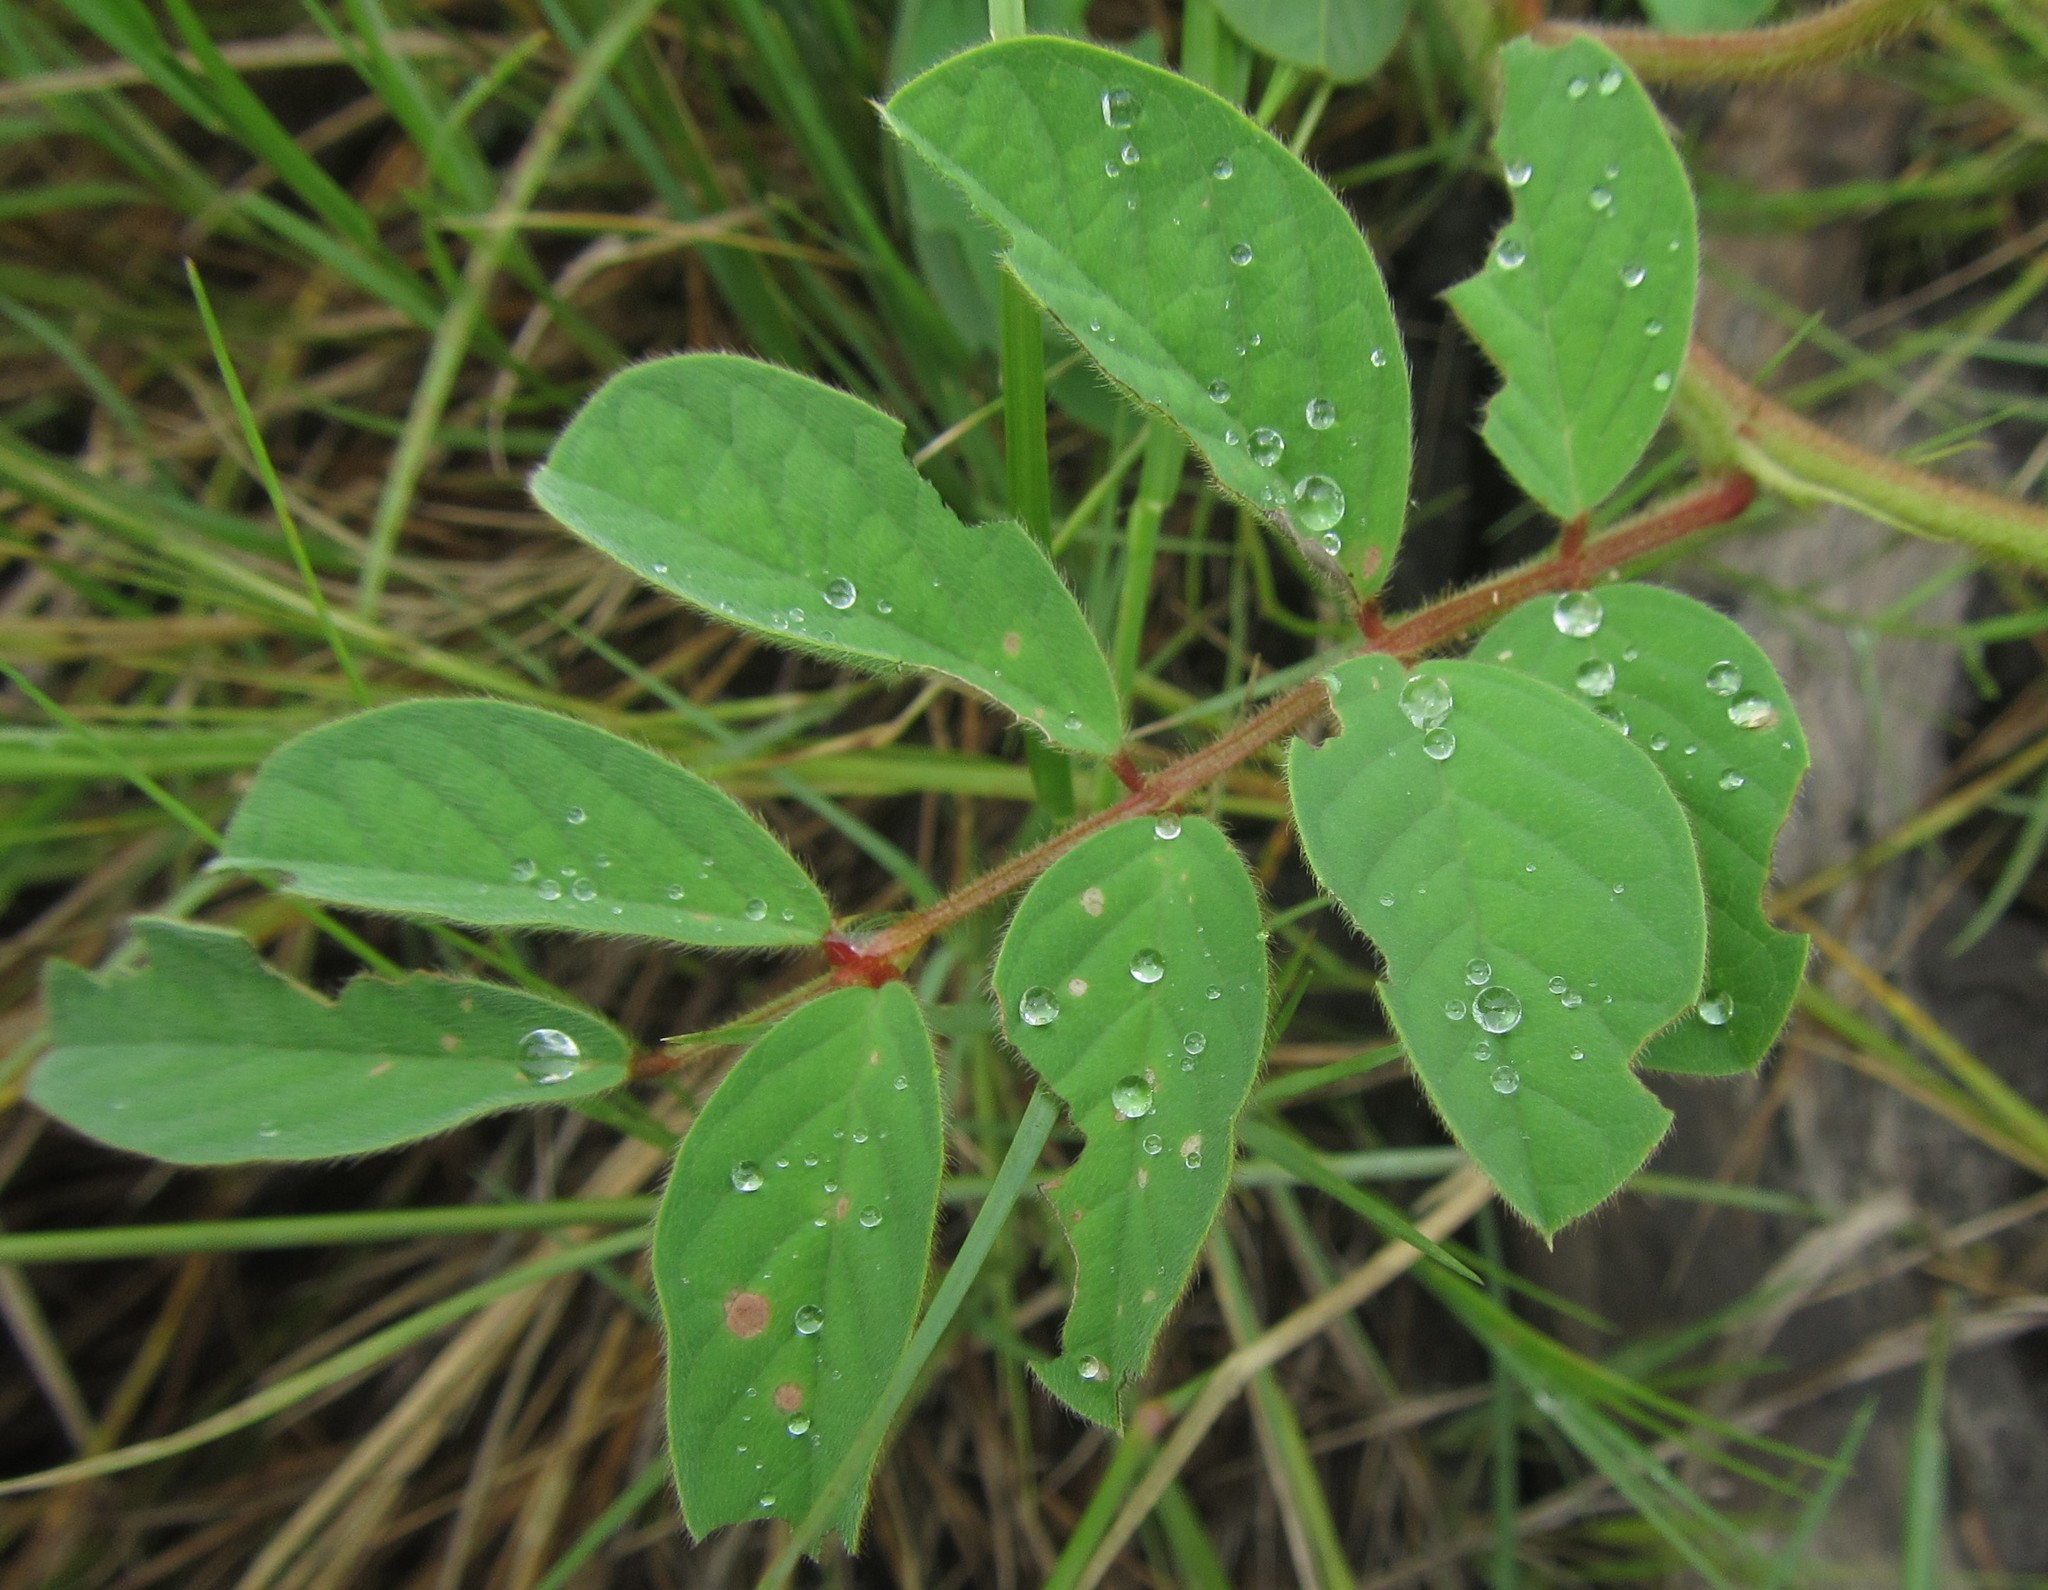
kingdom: Plantae
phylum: Tracheophyta
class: Magnoliopsida
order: Fabales
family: Fabaceae
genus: Indigofera
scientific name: Indigofera astragalina
